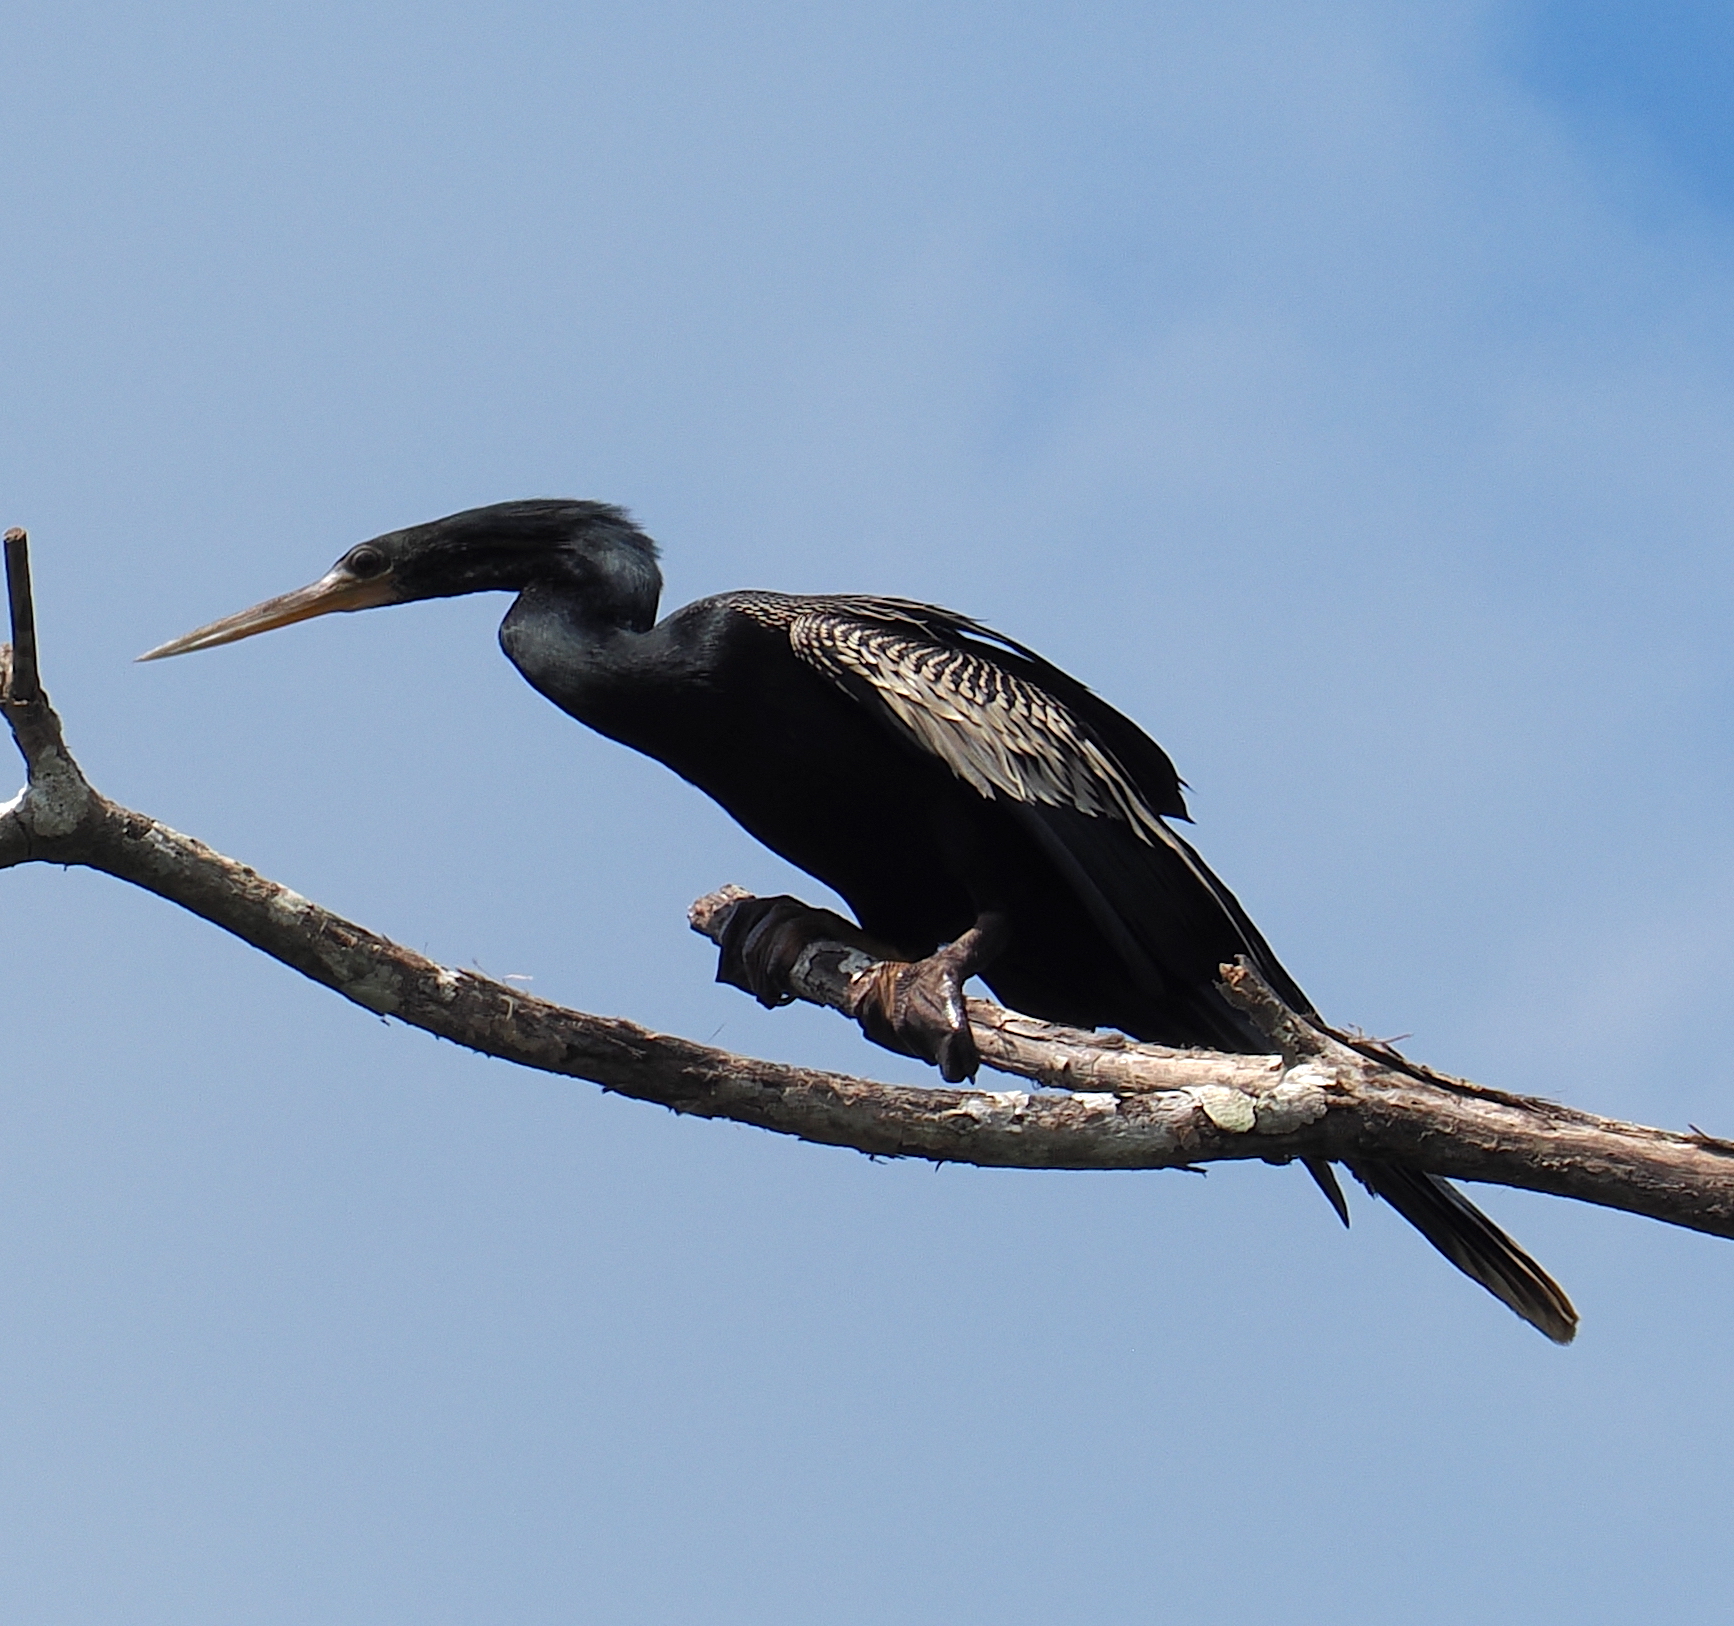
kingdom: Animalia
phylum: Chordata
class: Aves
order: Suliformes
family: Anhingidae
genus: Anhinga
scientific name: Anhinga anhinga
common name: Anhinga
